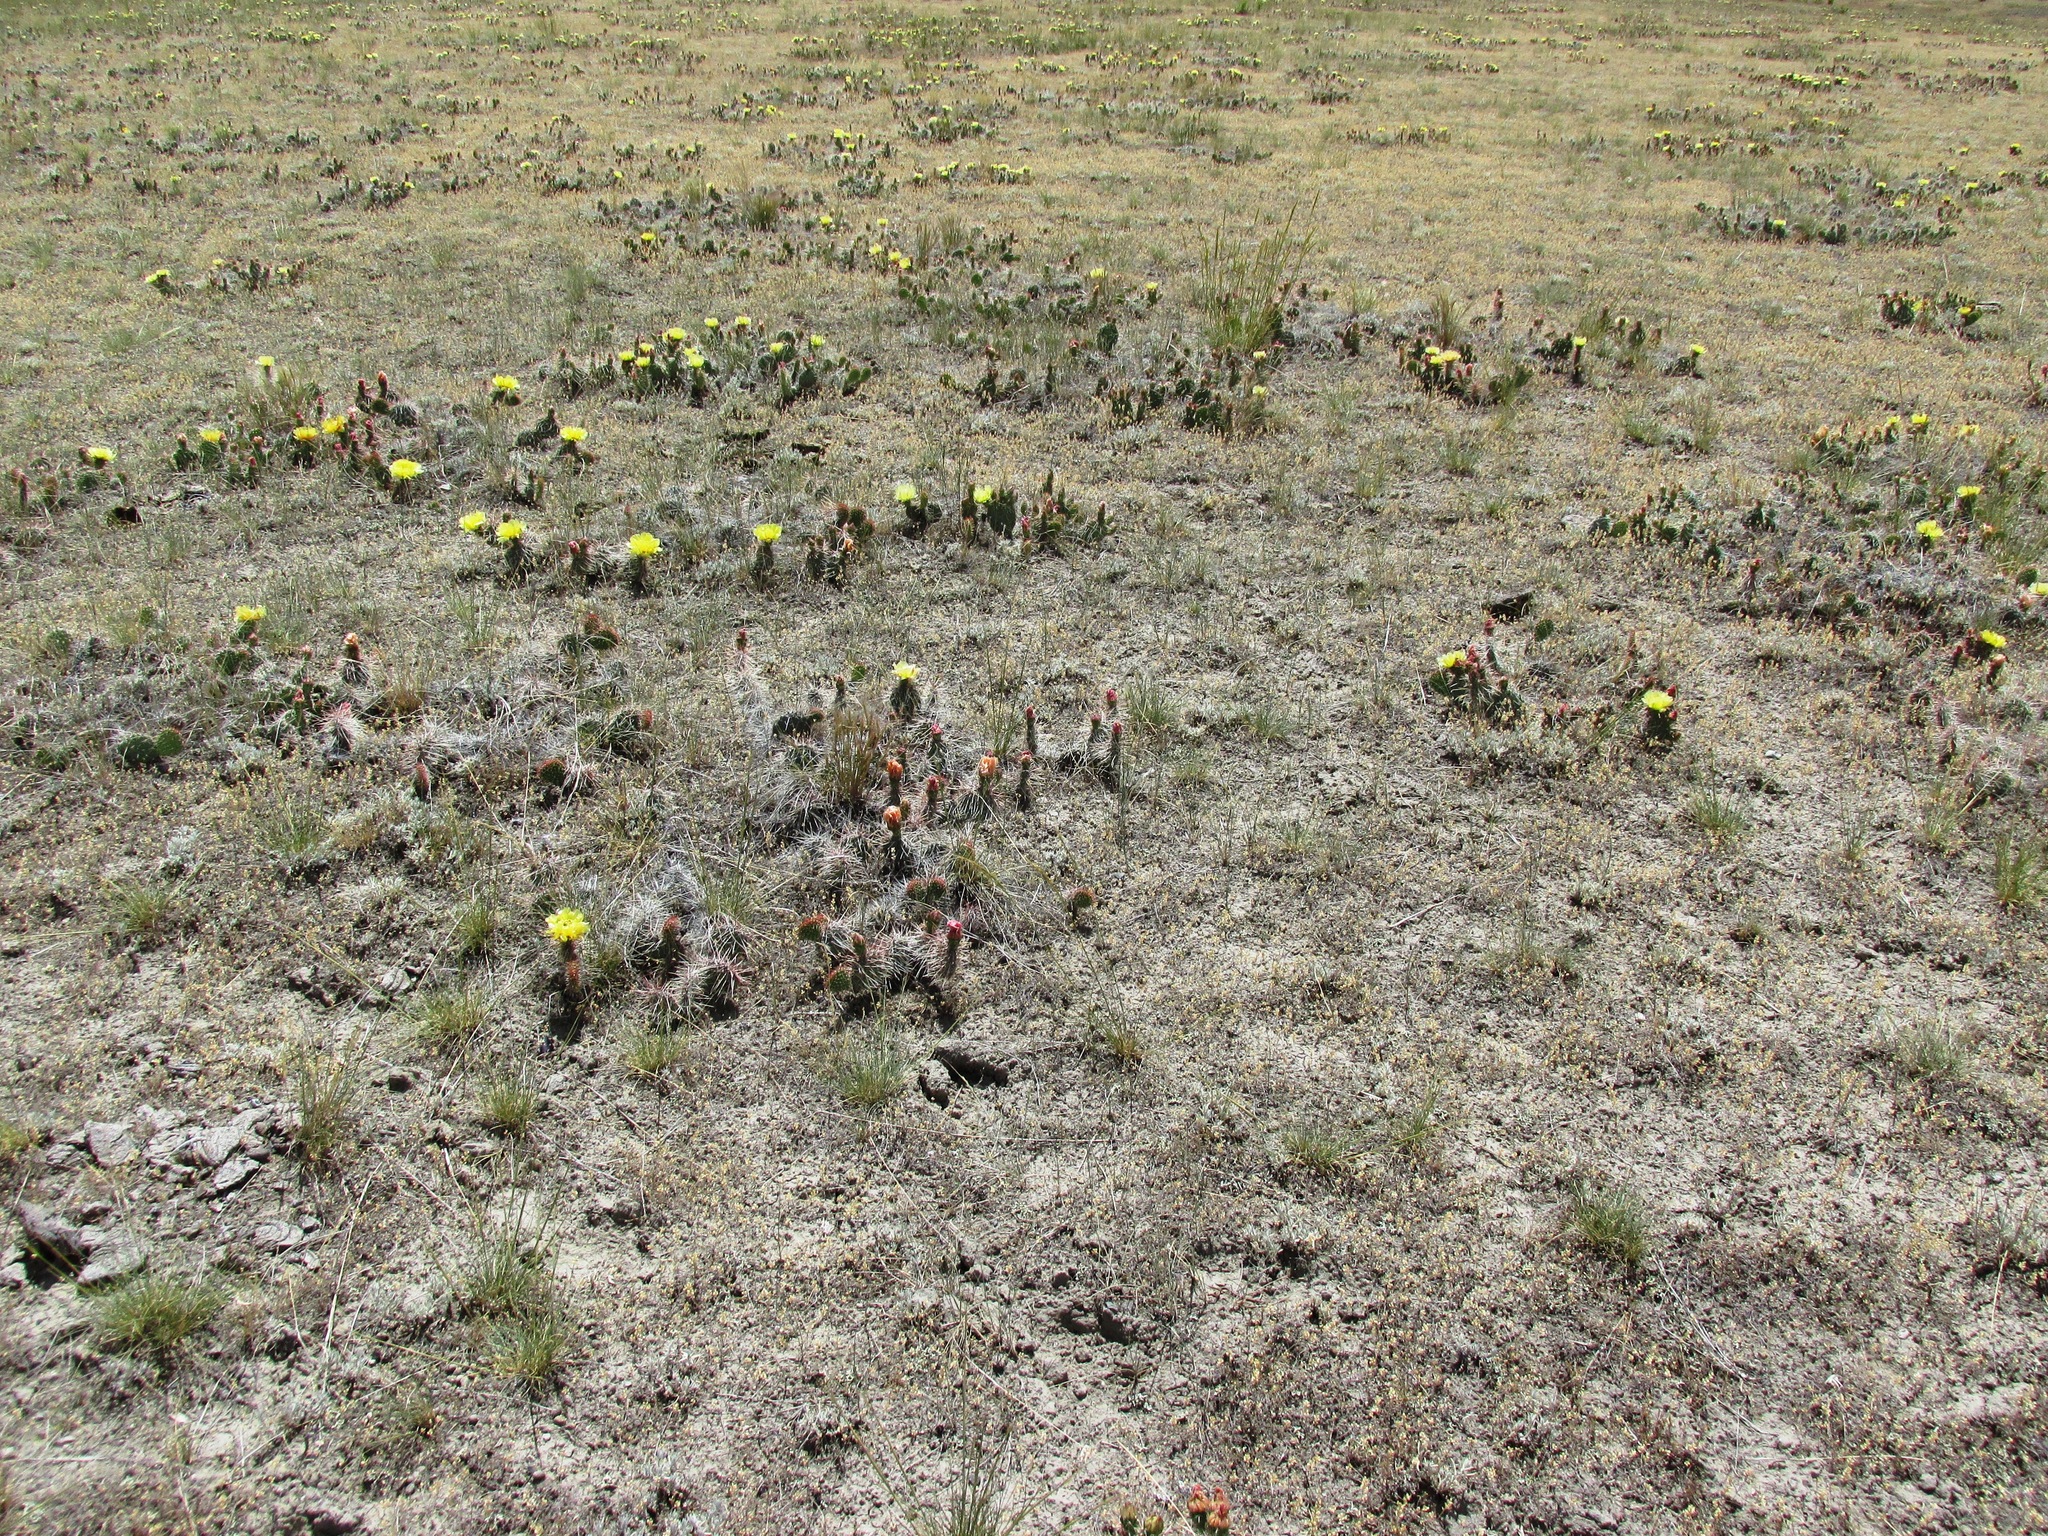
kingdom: Plantae
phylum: Tracheophyta
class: Magnoliopsida
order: Caryophyllales
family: Cactaceae
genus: Opuntia
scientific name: Opuntia polyacantha
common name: Plains prickly-pear
